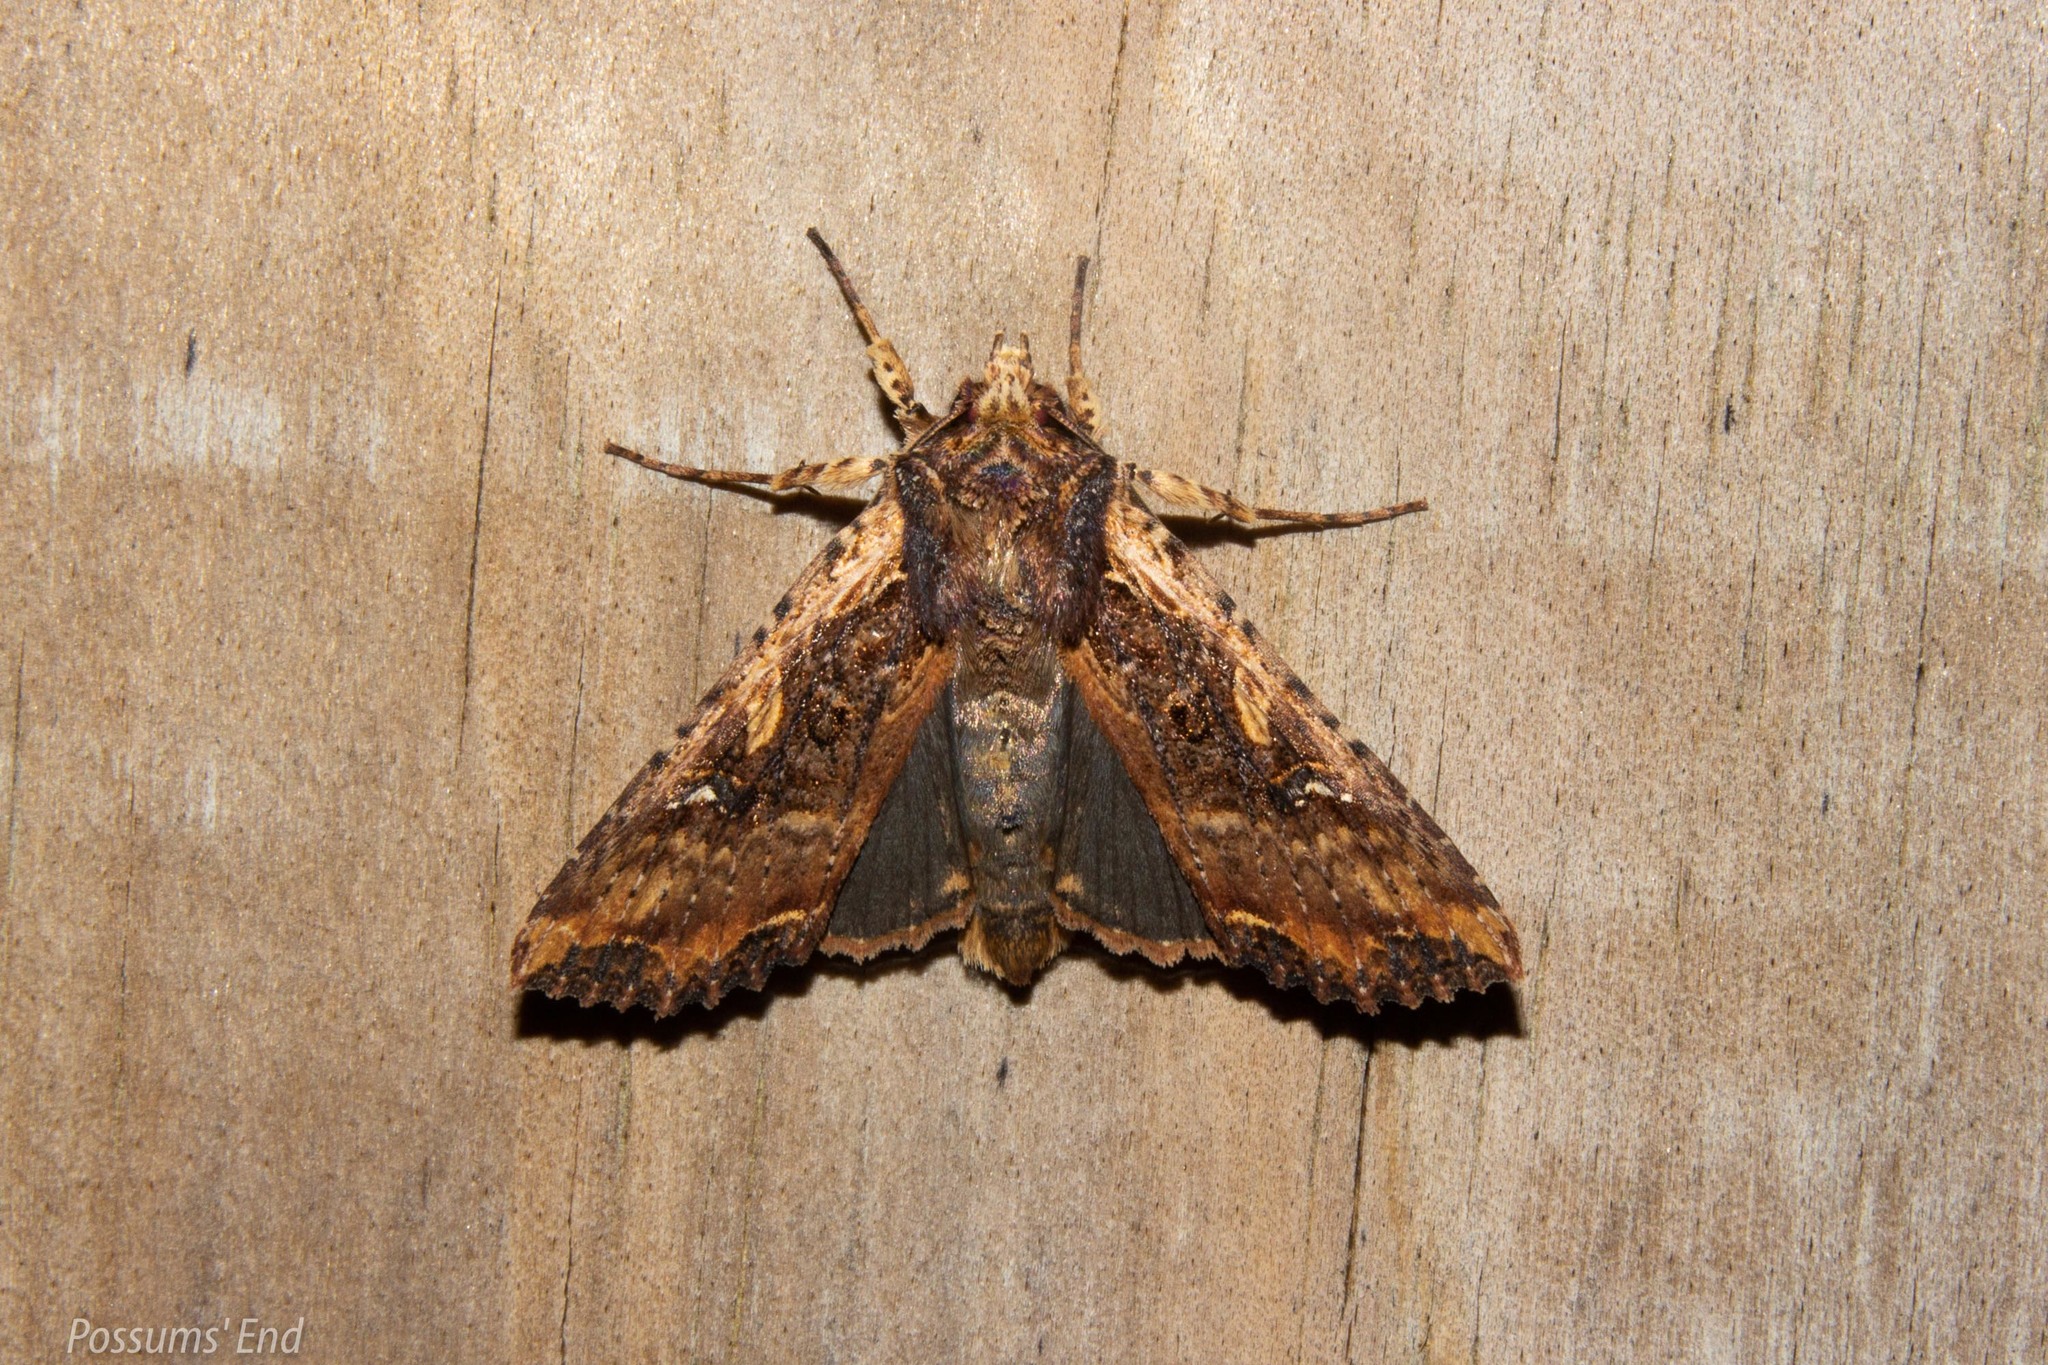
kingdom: Animalia
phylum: Arthropoda
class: Insecta
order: Lepidoptera
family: Noctuidae
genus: Meterana
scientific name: Meterana stipata
